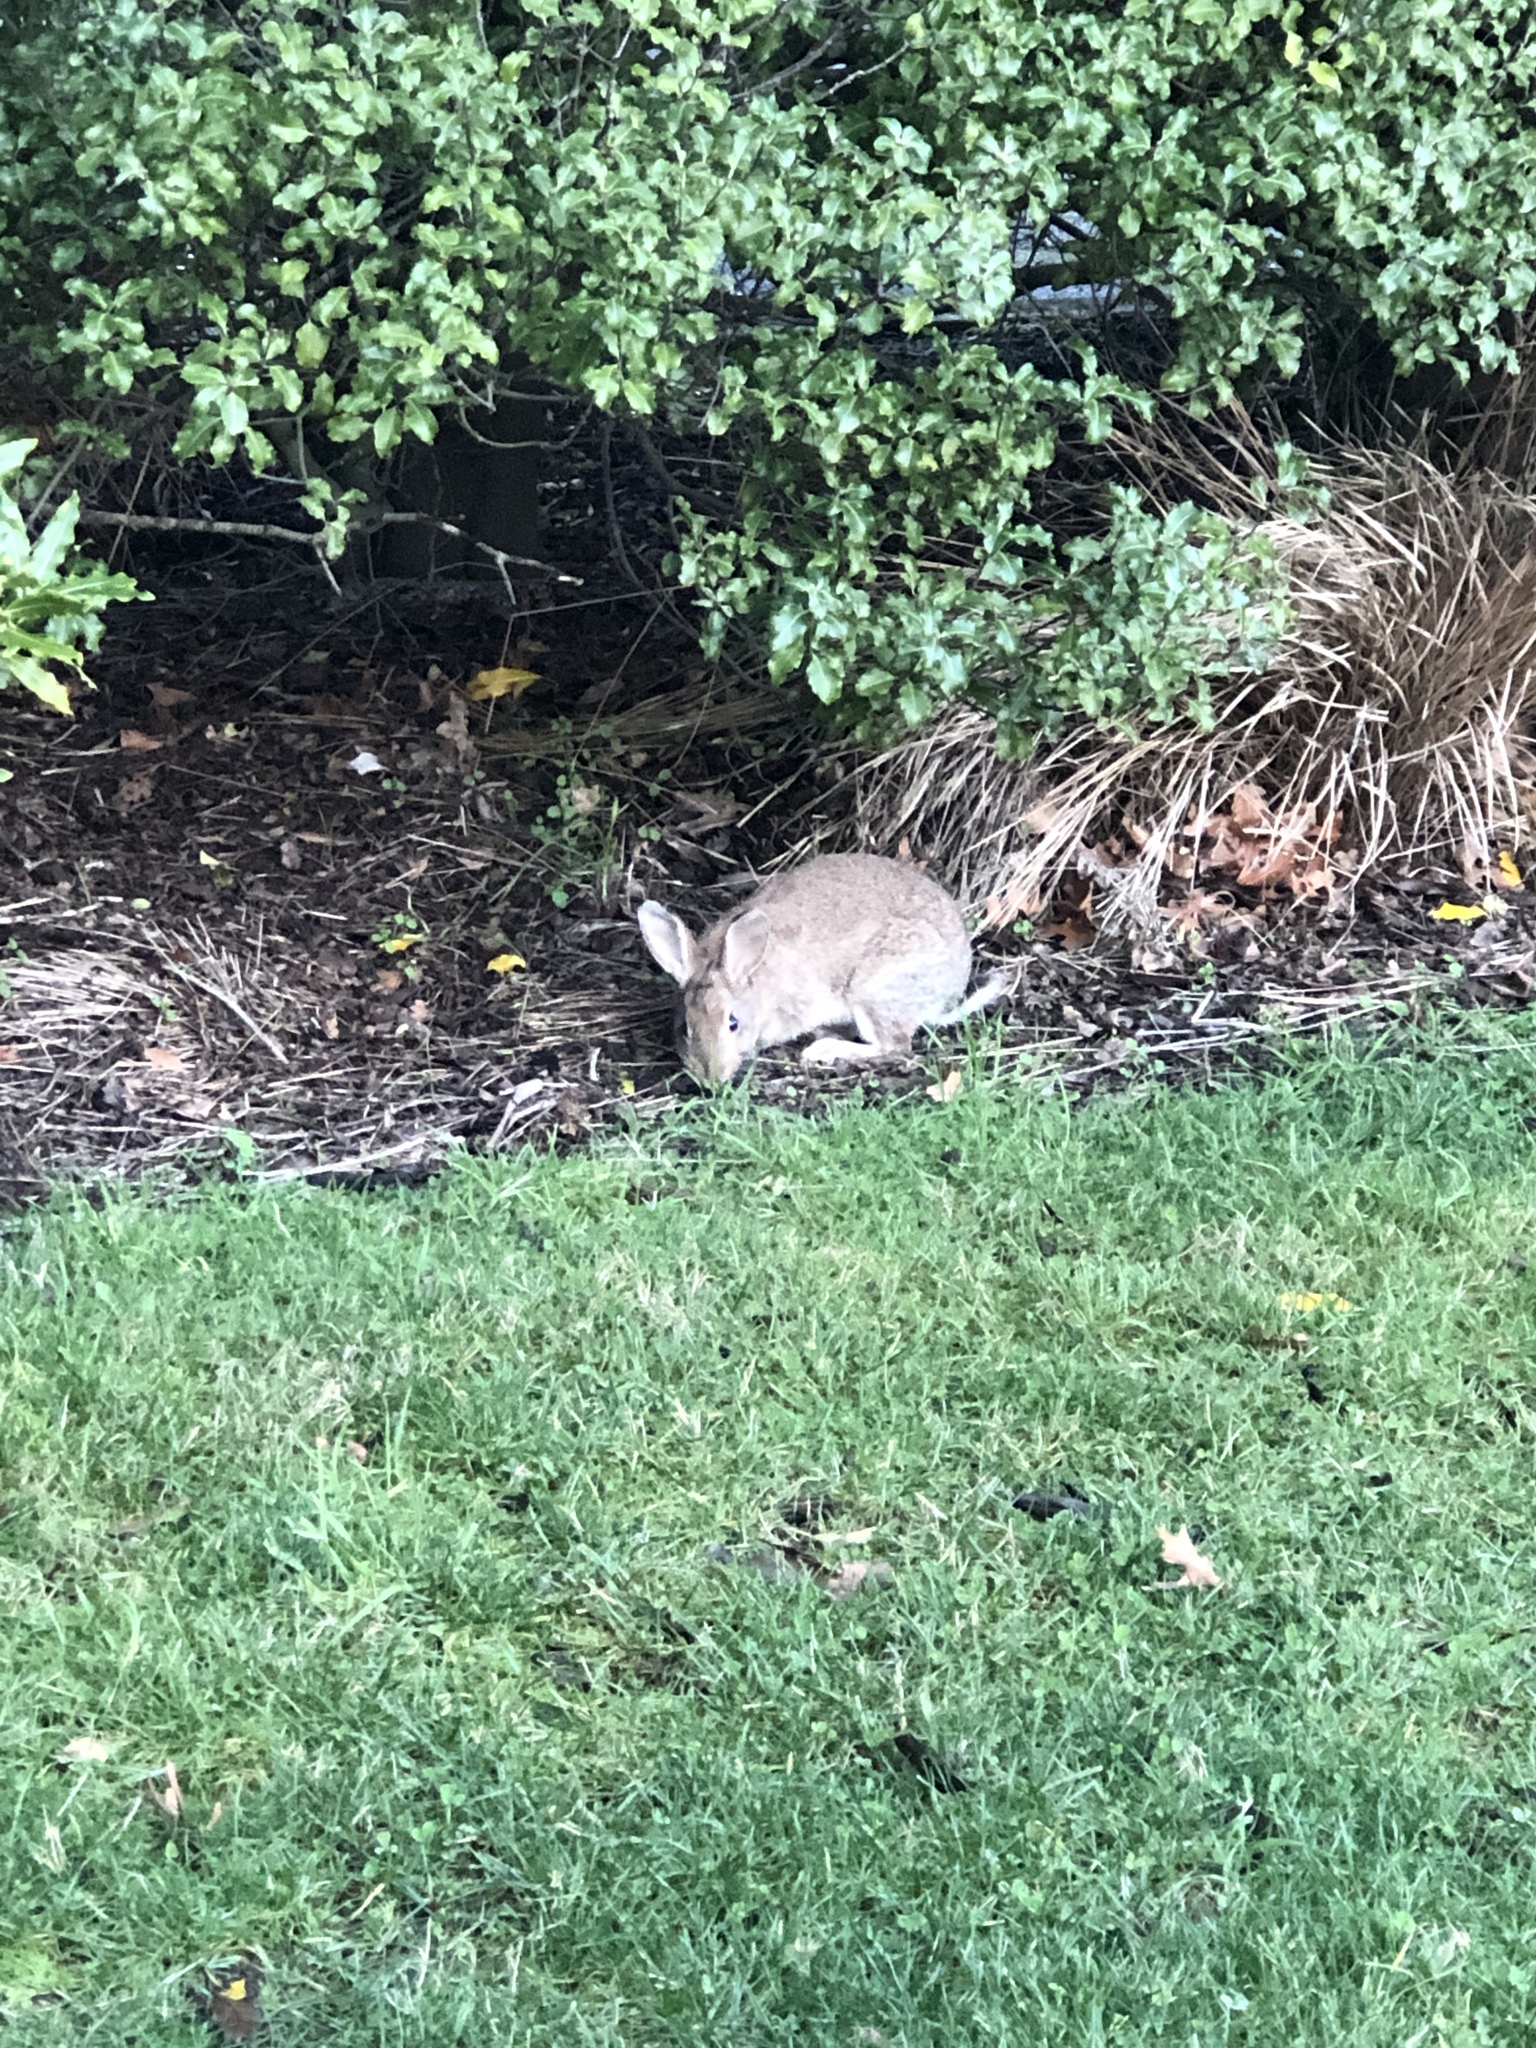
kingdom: Animalia
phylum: Chordata
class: Mammalia
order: Lagomorpha
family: Leporidae
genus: Oryctolagus
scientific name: Oryctolagus cuniculus
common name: European rabbit
